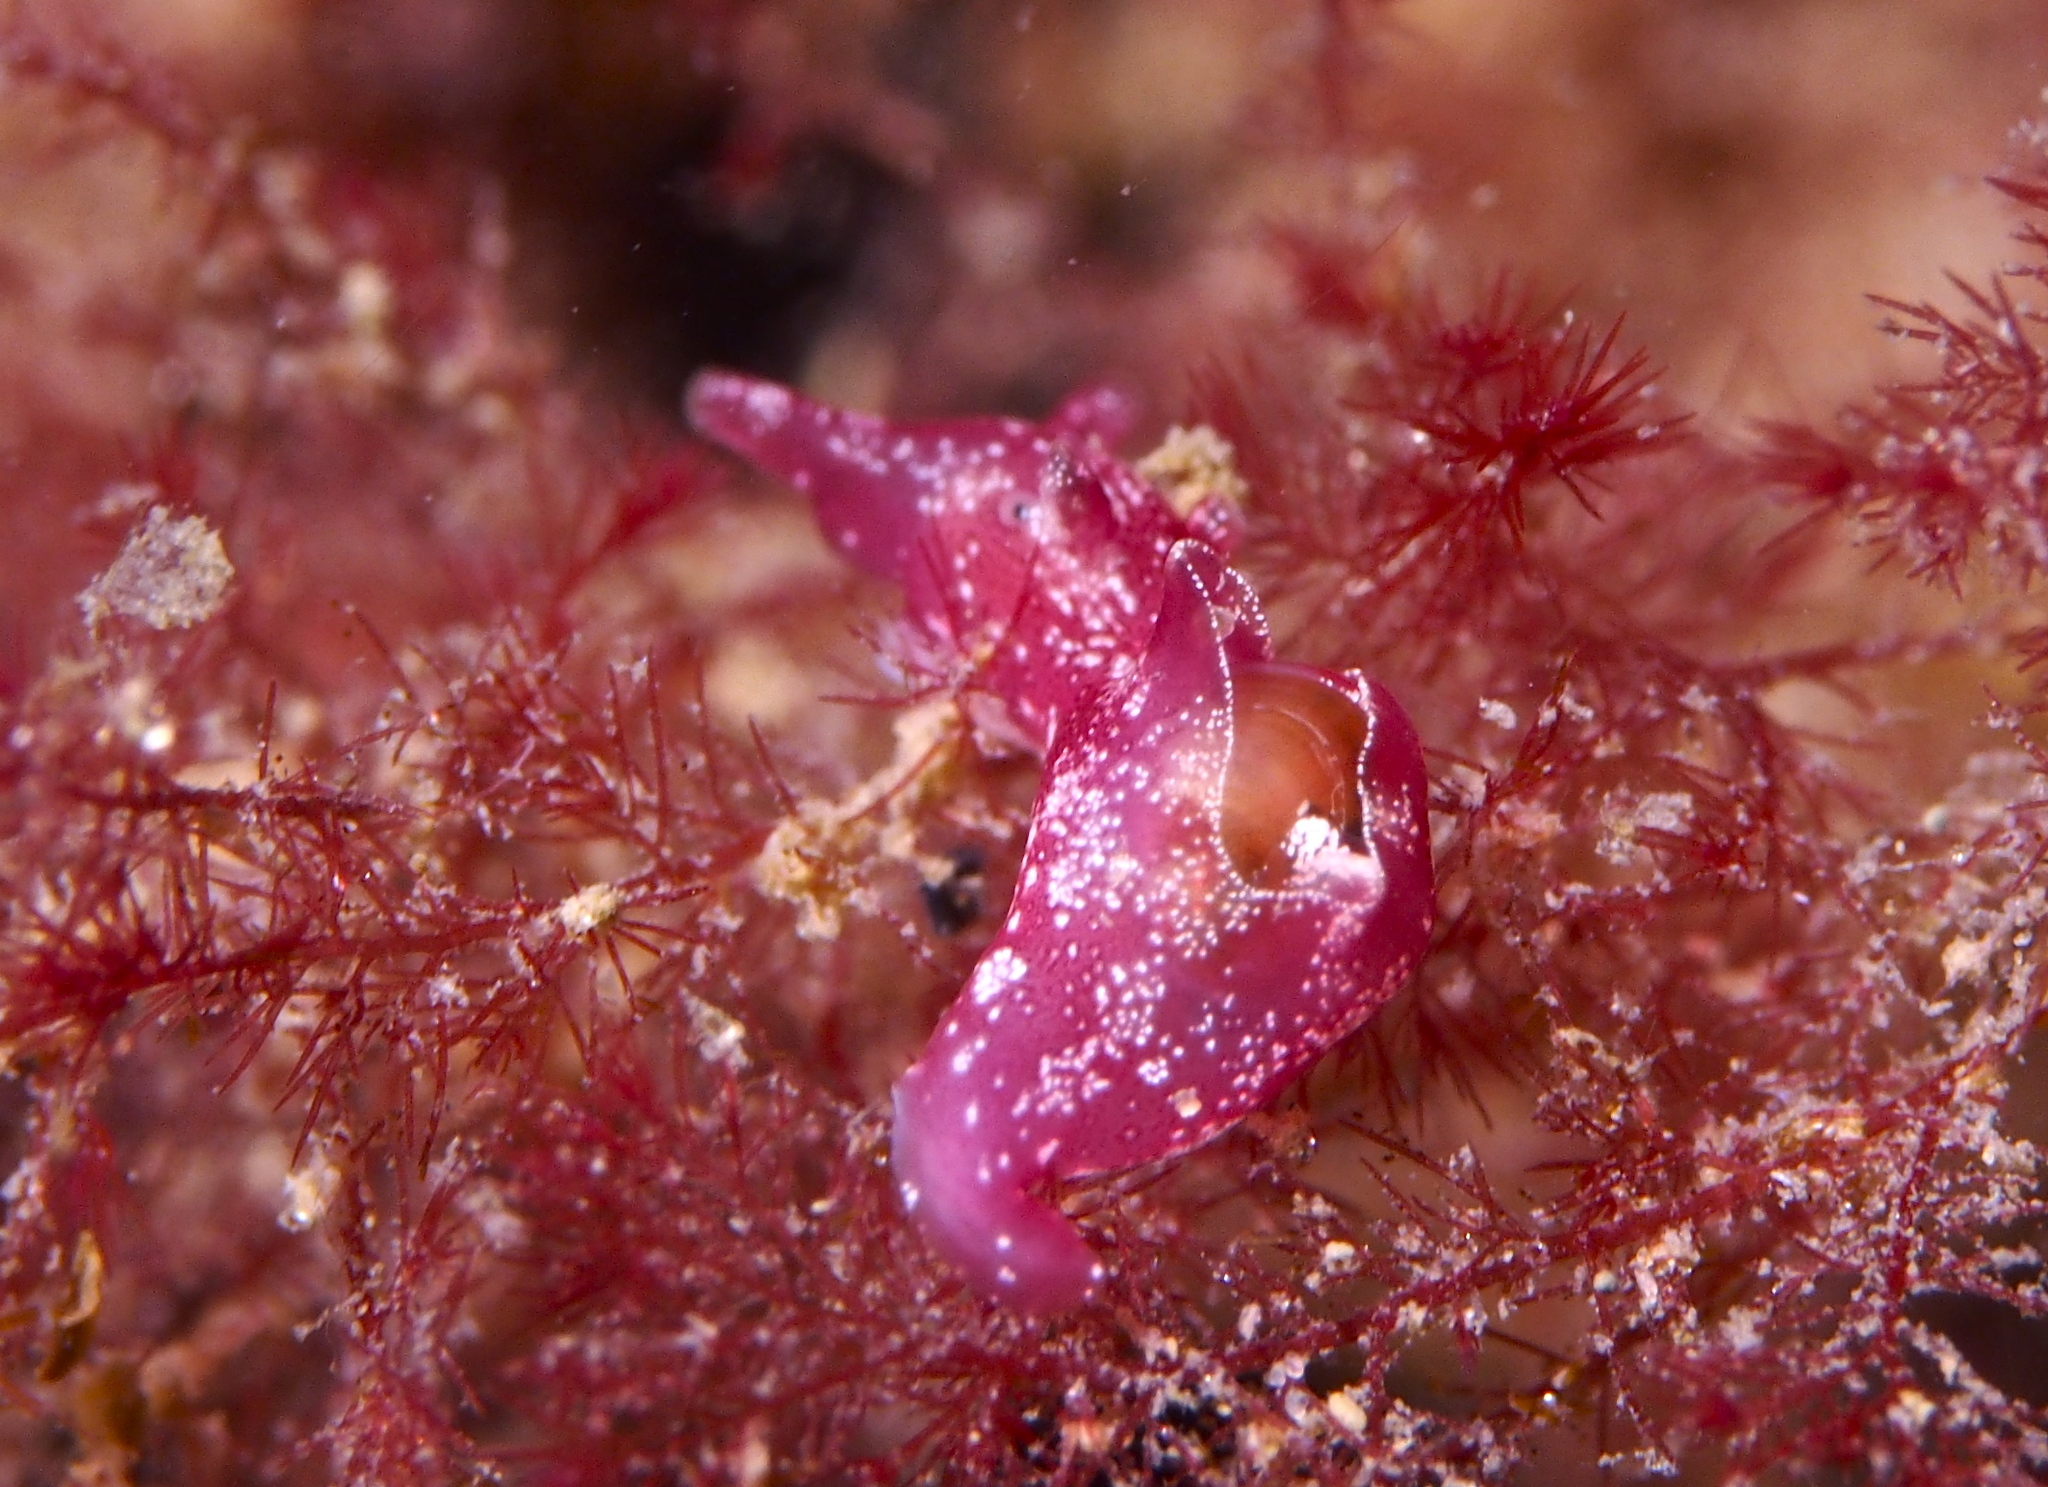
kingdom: Animalia
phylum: Mollusca
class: Gastropoda
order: Aplysiida
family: Aplysiidae
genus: Aplysia
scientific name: Aplysia punctata
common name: Common sea hare
